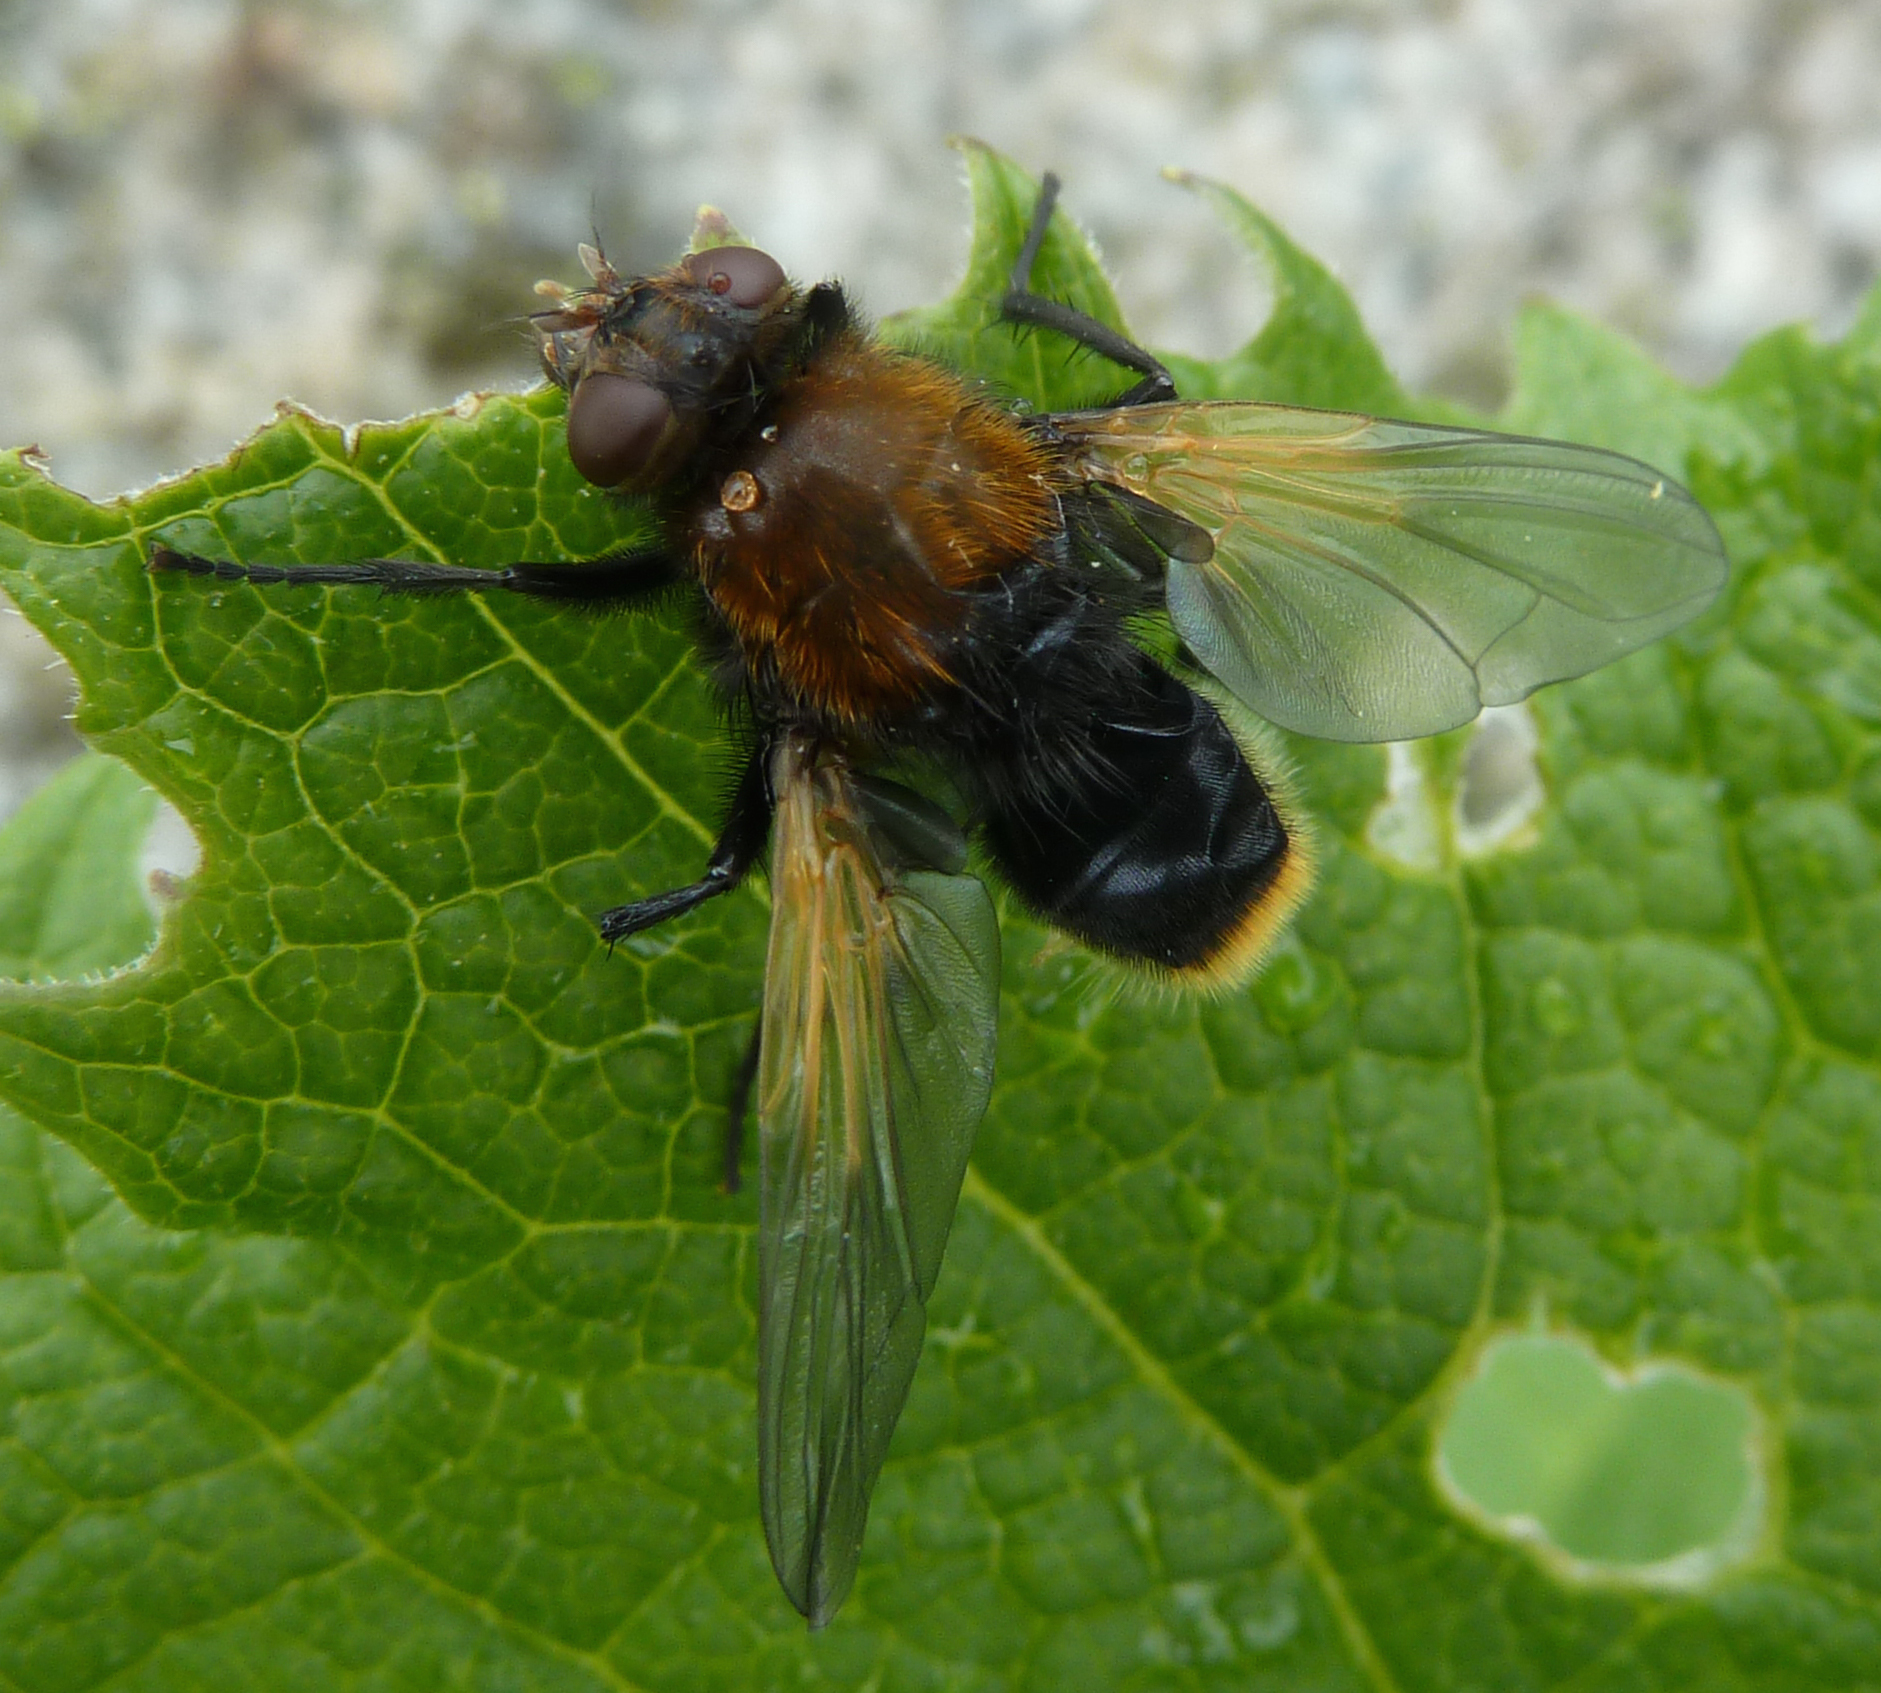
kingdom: Animalia
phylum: Arthropoda
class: Insecta
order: Diptera
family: Muscidae
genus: Mesembrina
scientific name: Mesembrina mystacea
